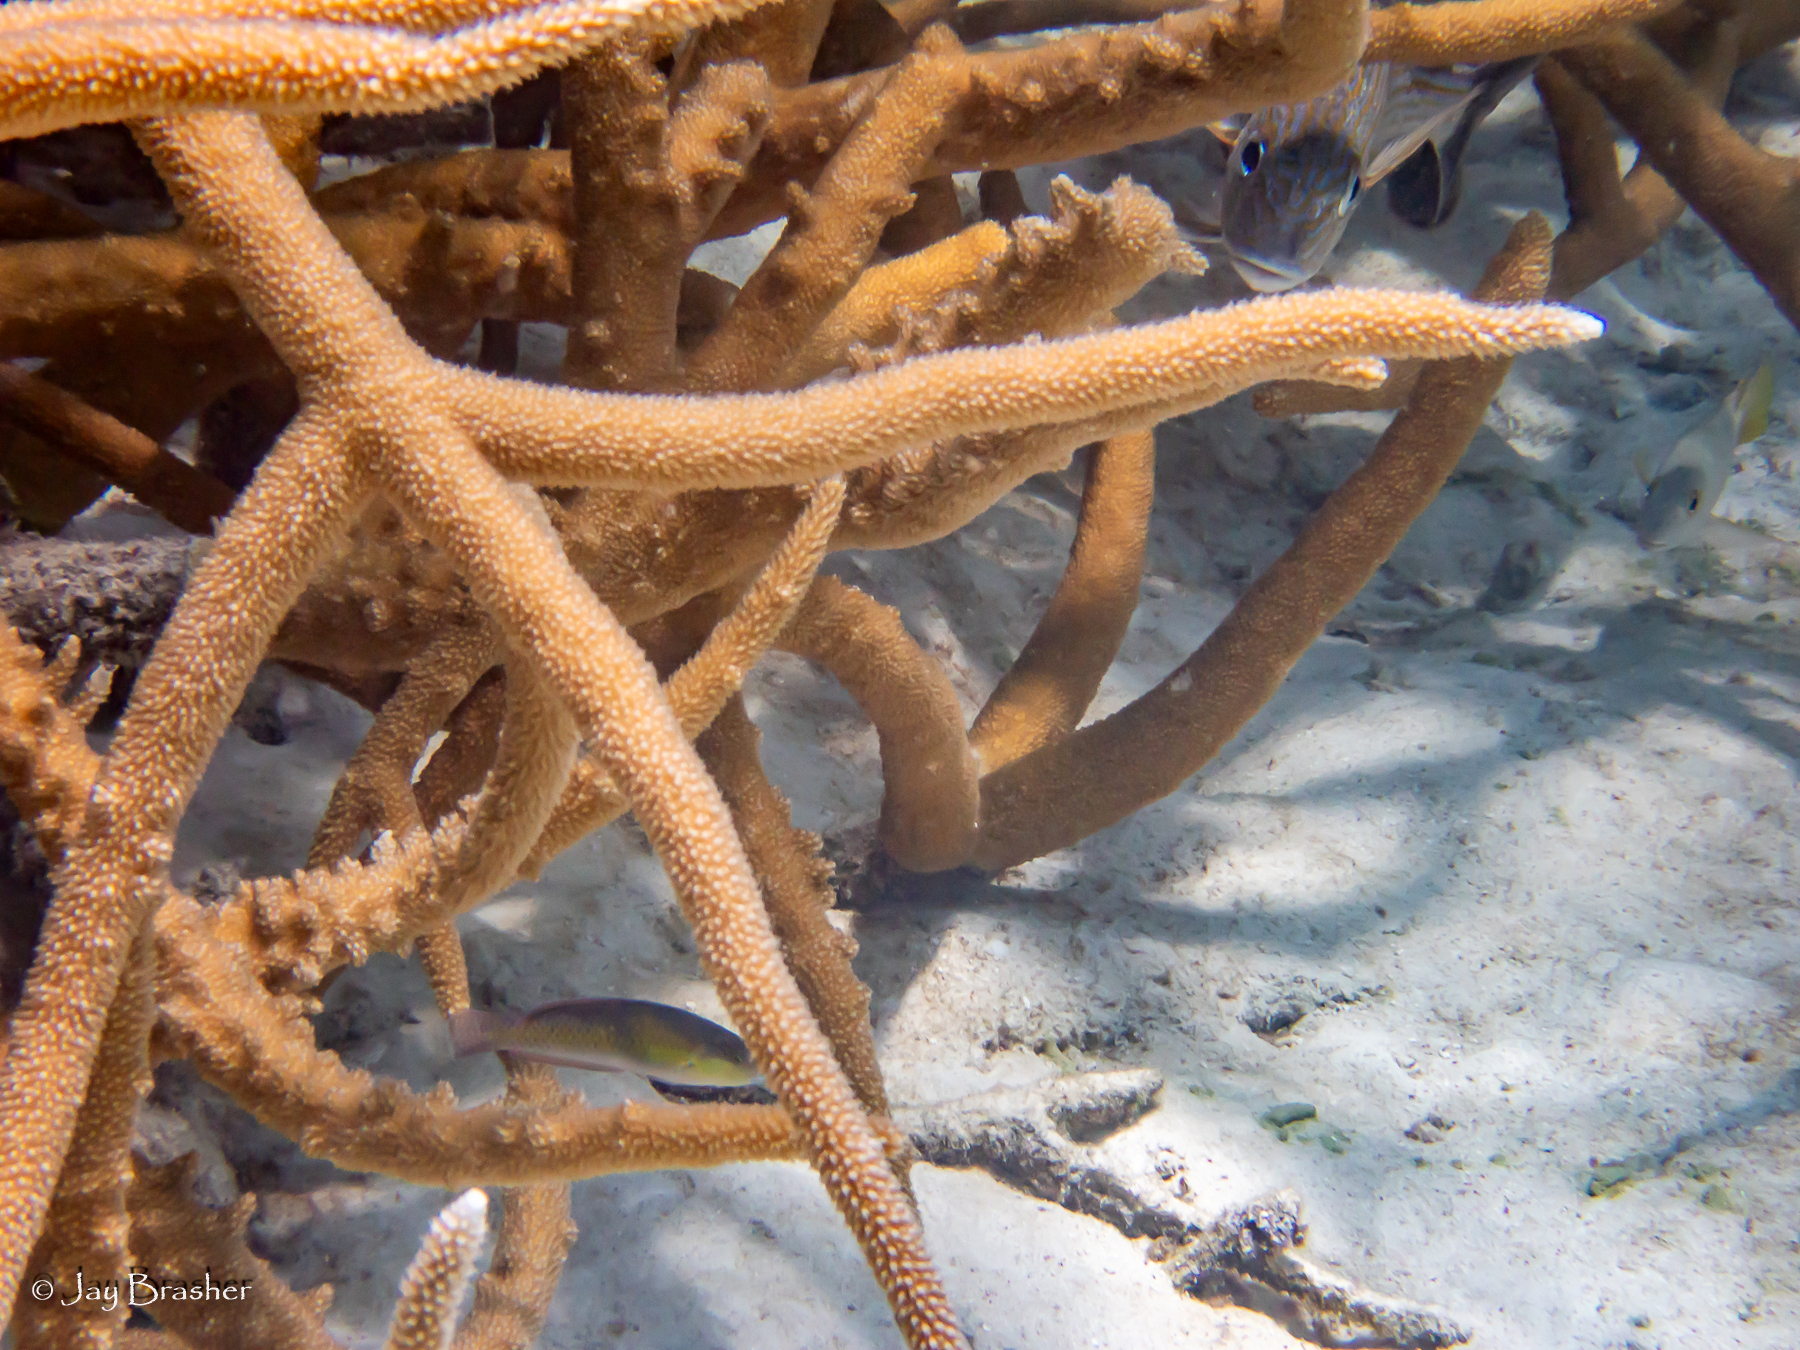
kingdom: Animalia
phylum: Cnidaria
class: Anthozoa
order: Scleractinia
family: Acroporidae
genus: Acropora
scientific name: Acropora cervicornis
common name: Staghorn coral
